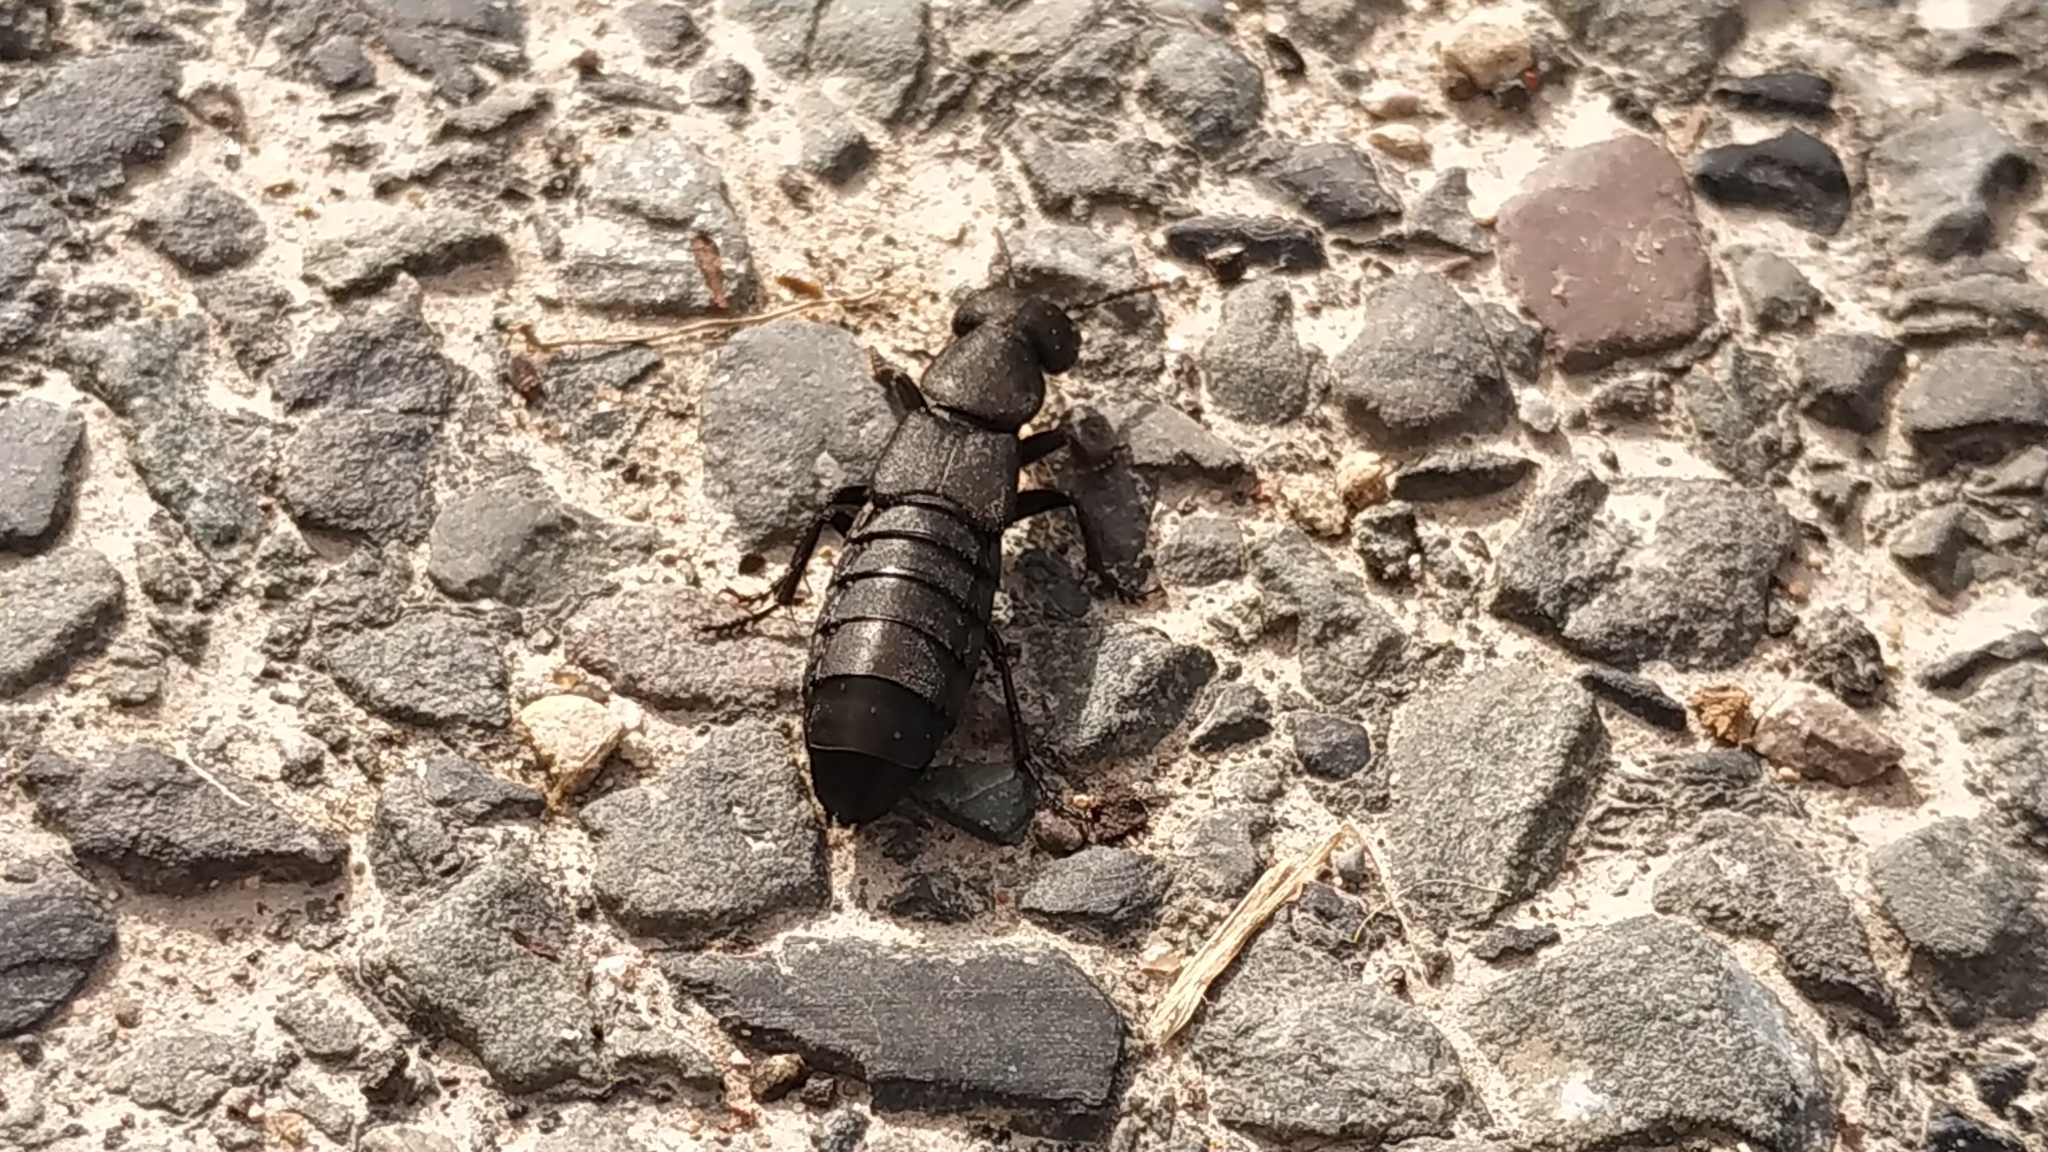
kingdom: Animalia
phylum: Arthropoda
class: Insecta
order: Coleoptera
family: Staphylinidae
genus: Ocypus
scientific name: Ocypus olens
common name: Devil's coach-horse
